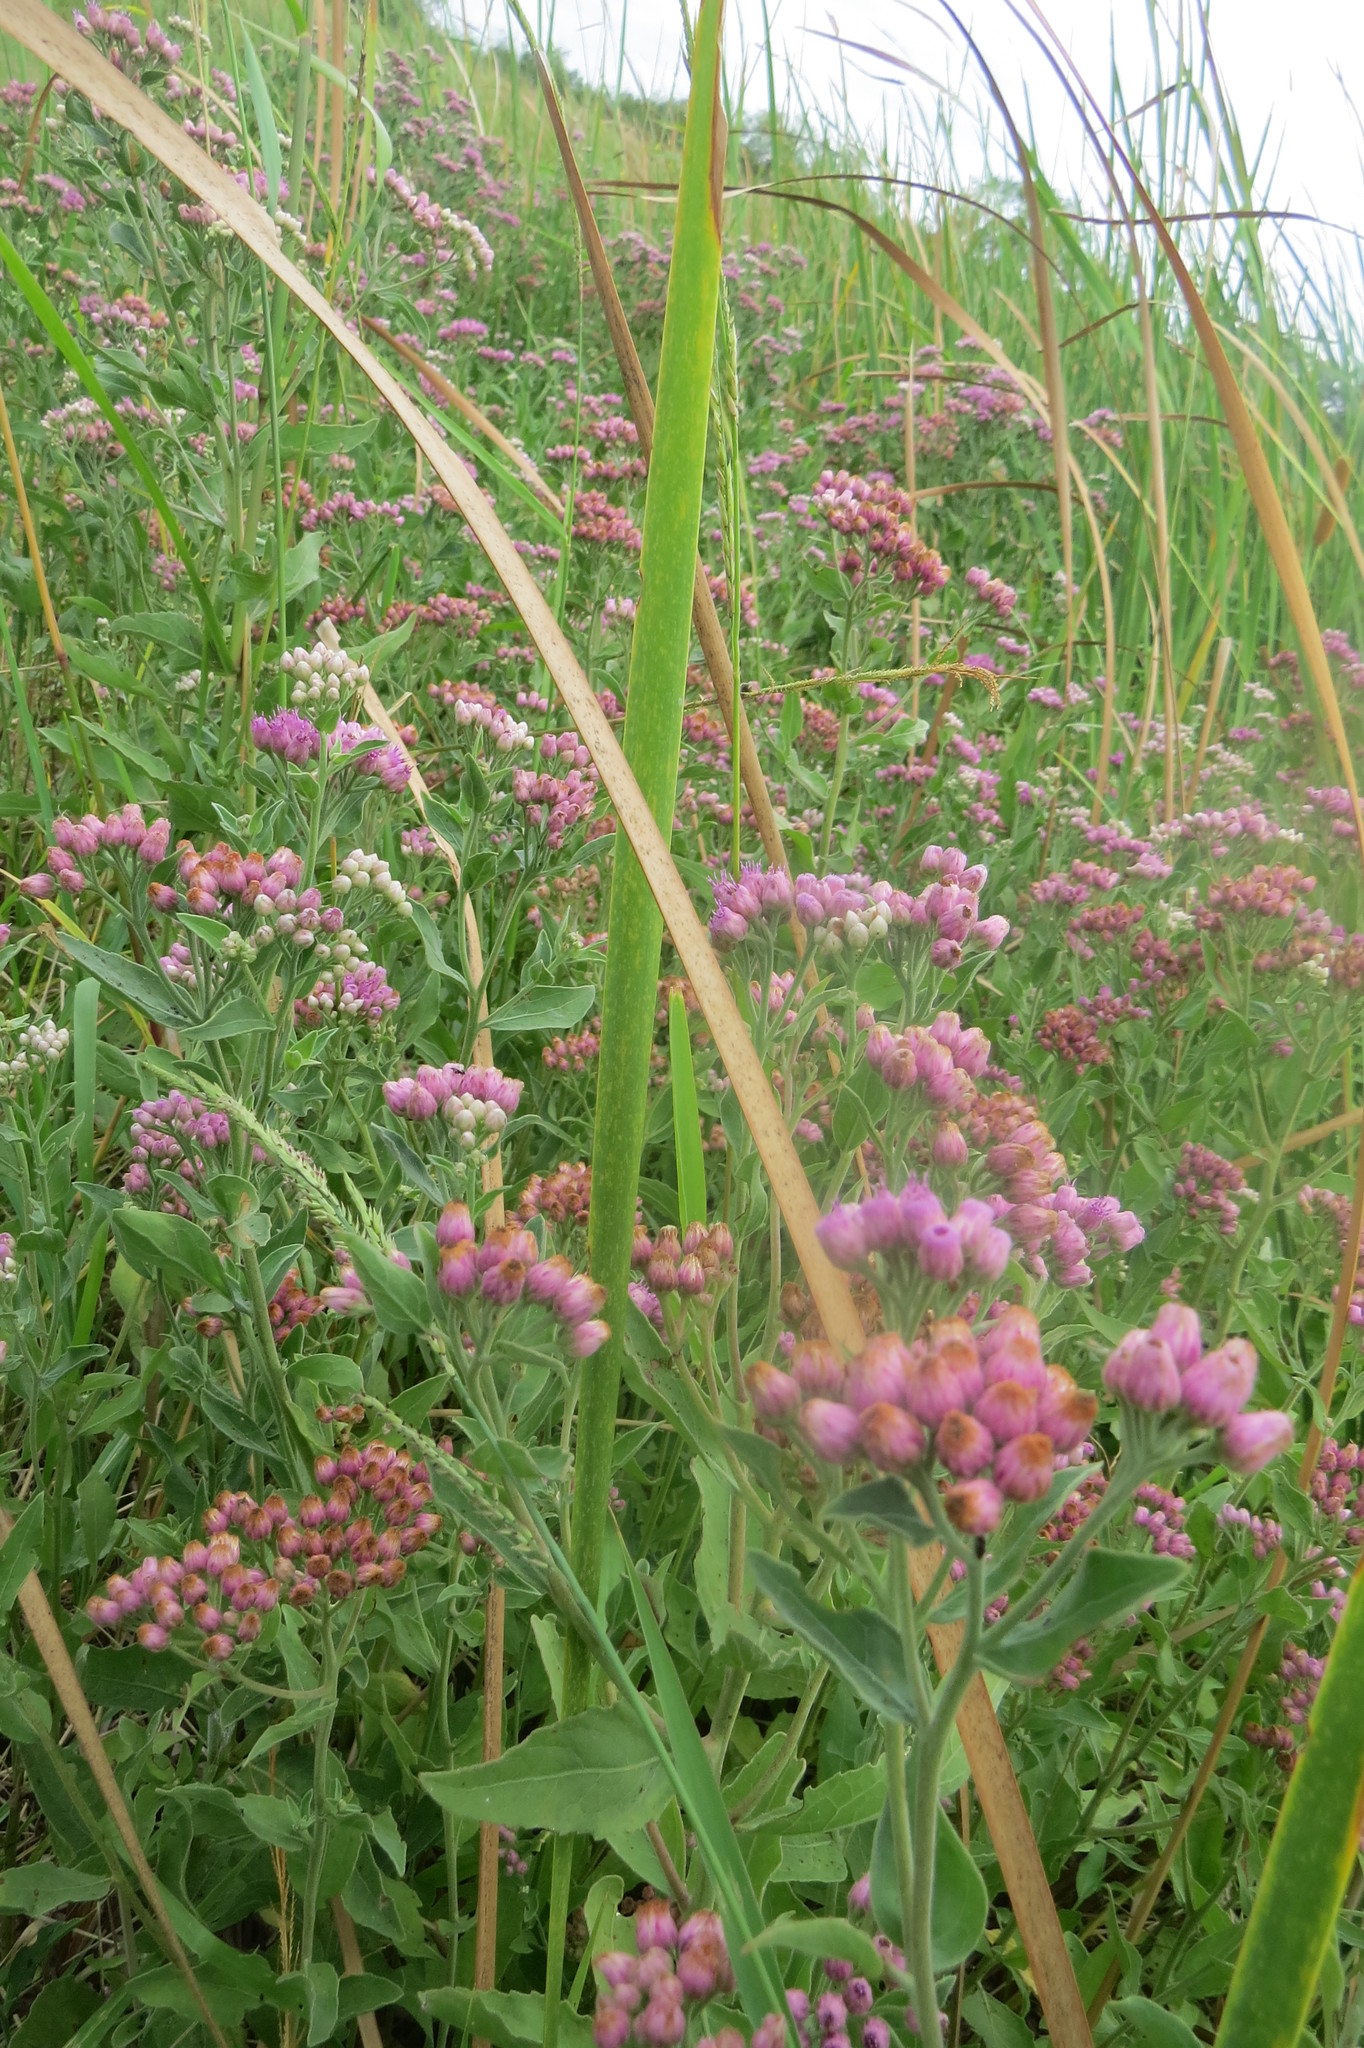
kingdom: Plantae
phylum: Tracheophyta
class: Magnoliopsida
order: Asterales
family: Asteraceae
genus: Pluchea
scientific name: Pluchea odorata
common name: Saltmarsh fleabane
